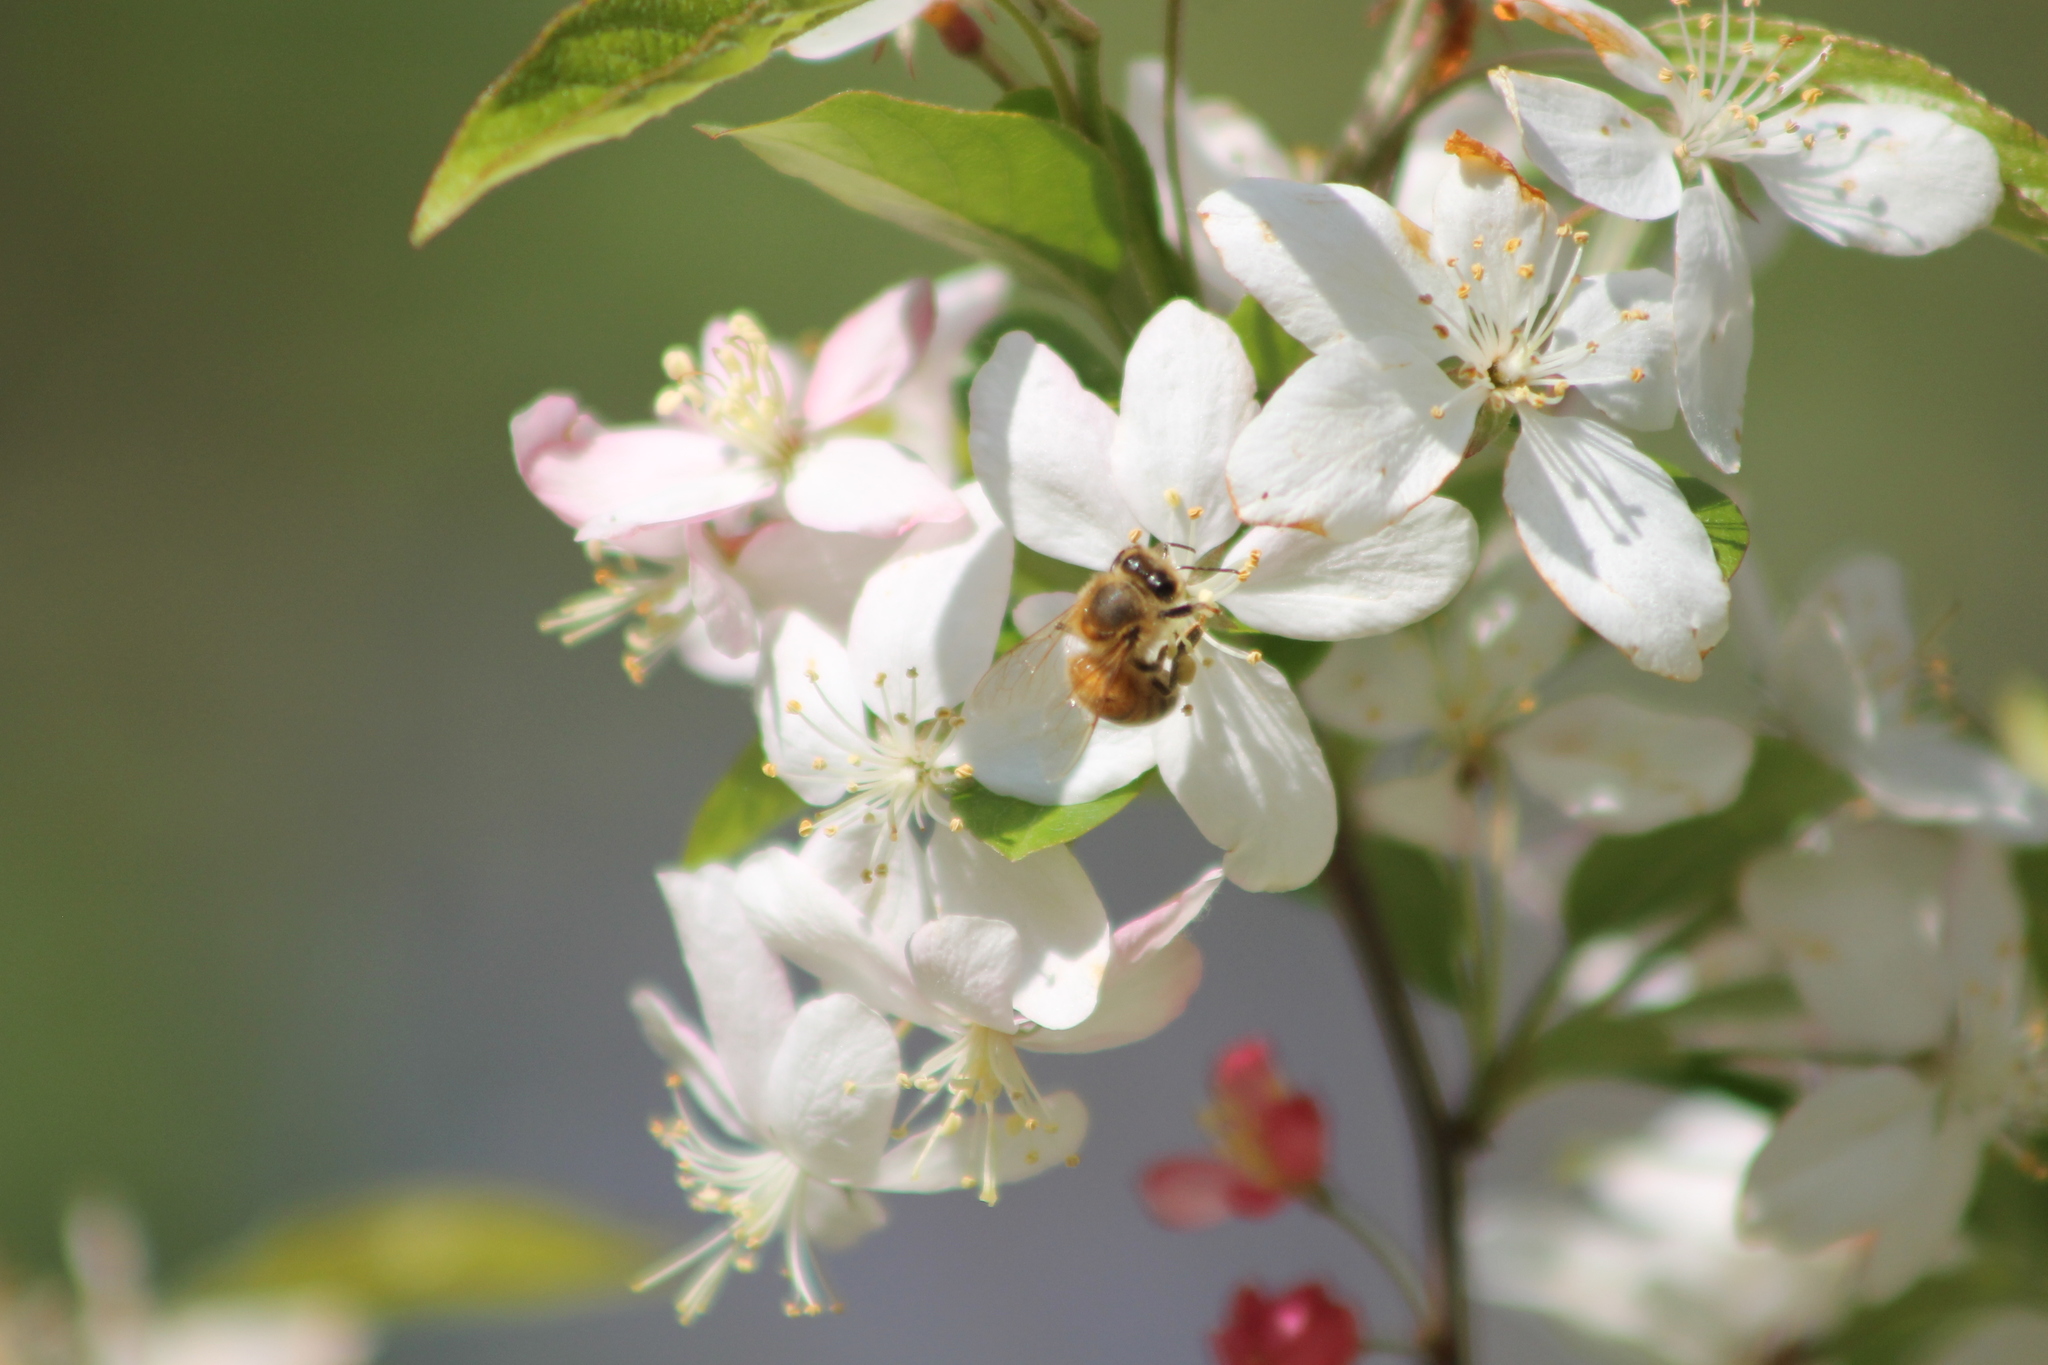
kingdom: Animalia
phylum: Arthropoda
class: Insecta
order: Hymenoptera
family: Apidae
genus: Apis
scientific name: Apis mellifera
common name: Honey bee
